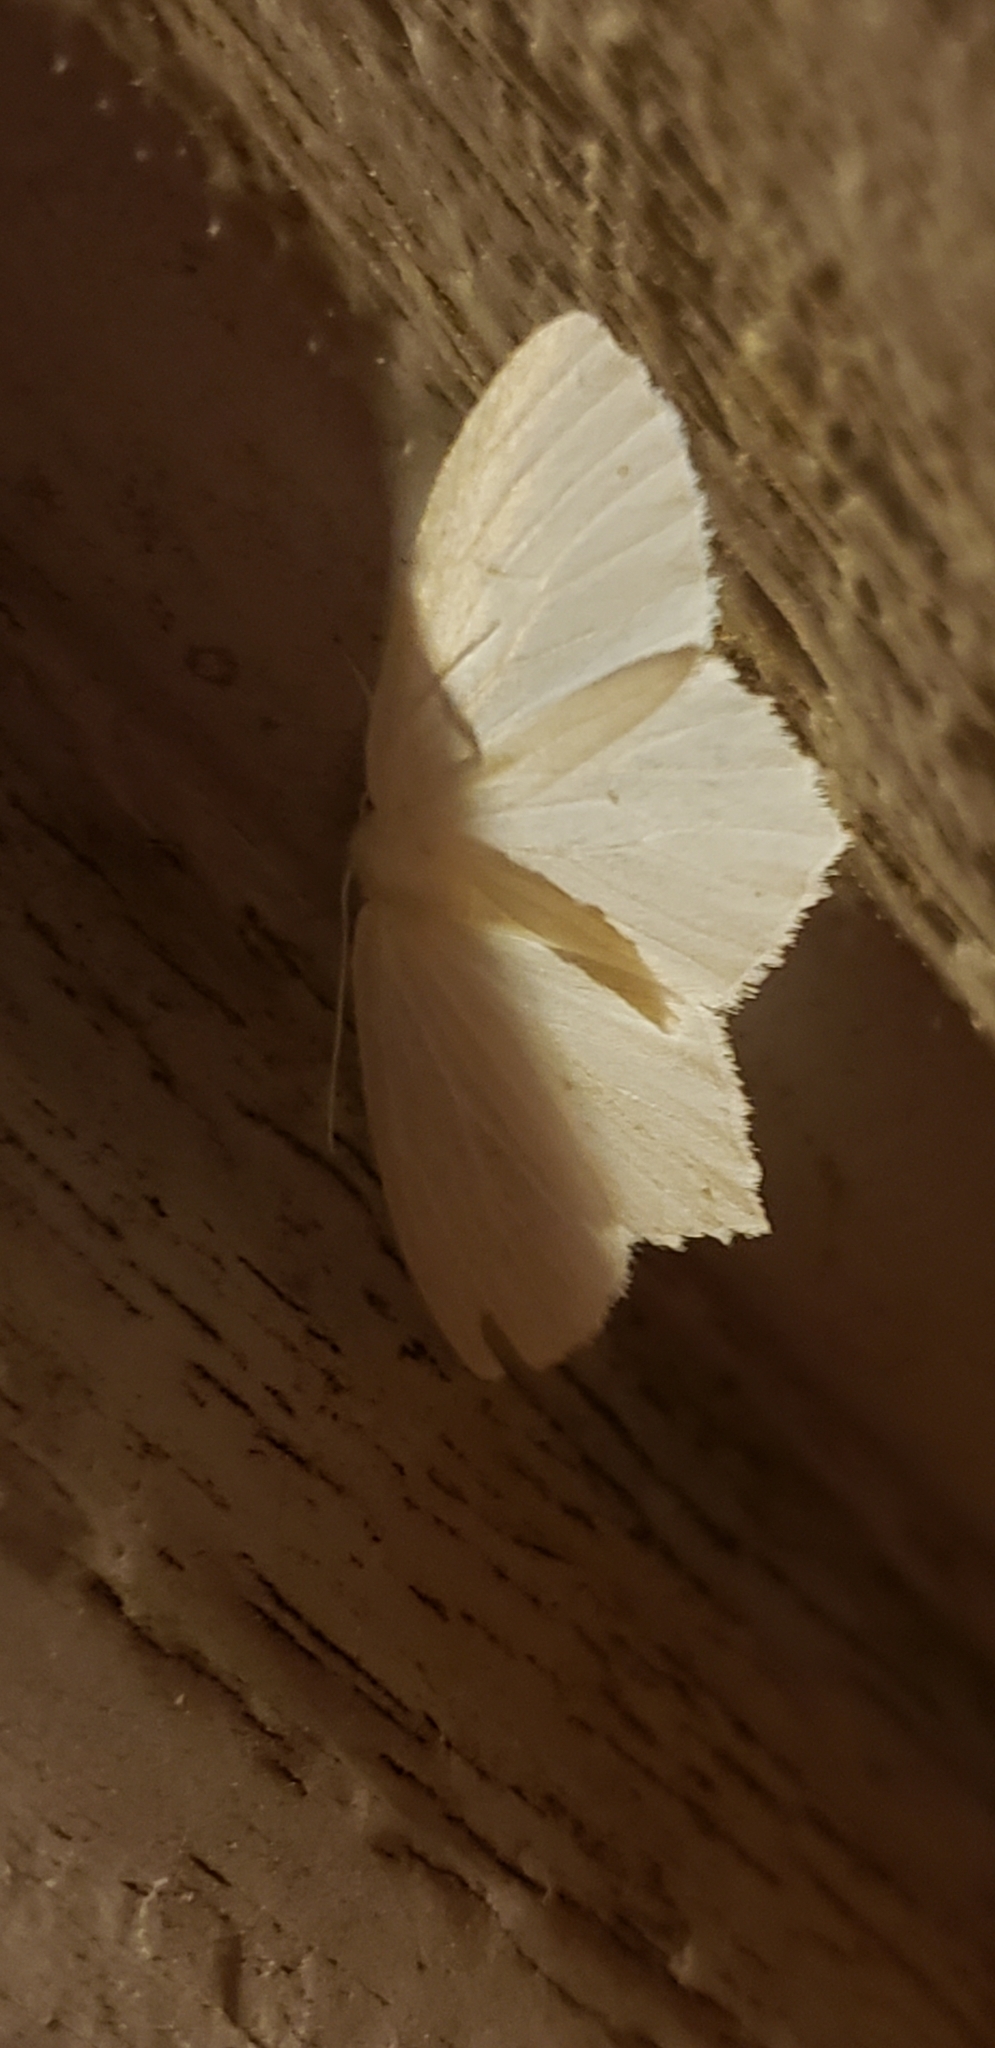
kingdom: Animalia
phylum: Arthropoda
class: Insecta
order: Lepidoptera
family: Geometridae
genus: Eugonobapta
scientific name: Eugonobapta nivosaria
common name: Snowy geometer
